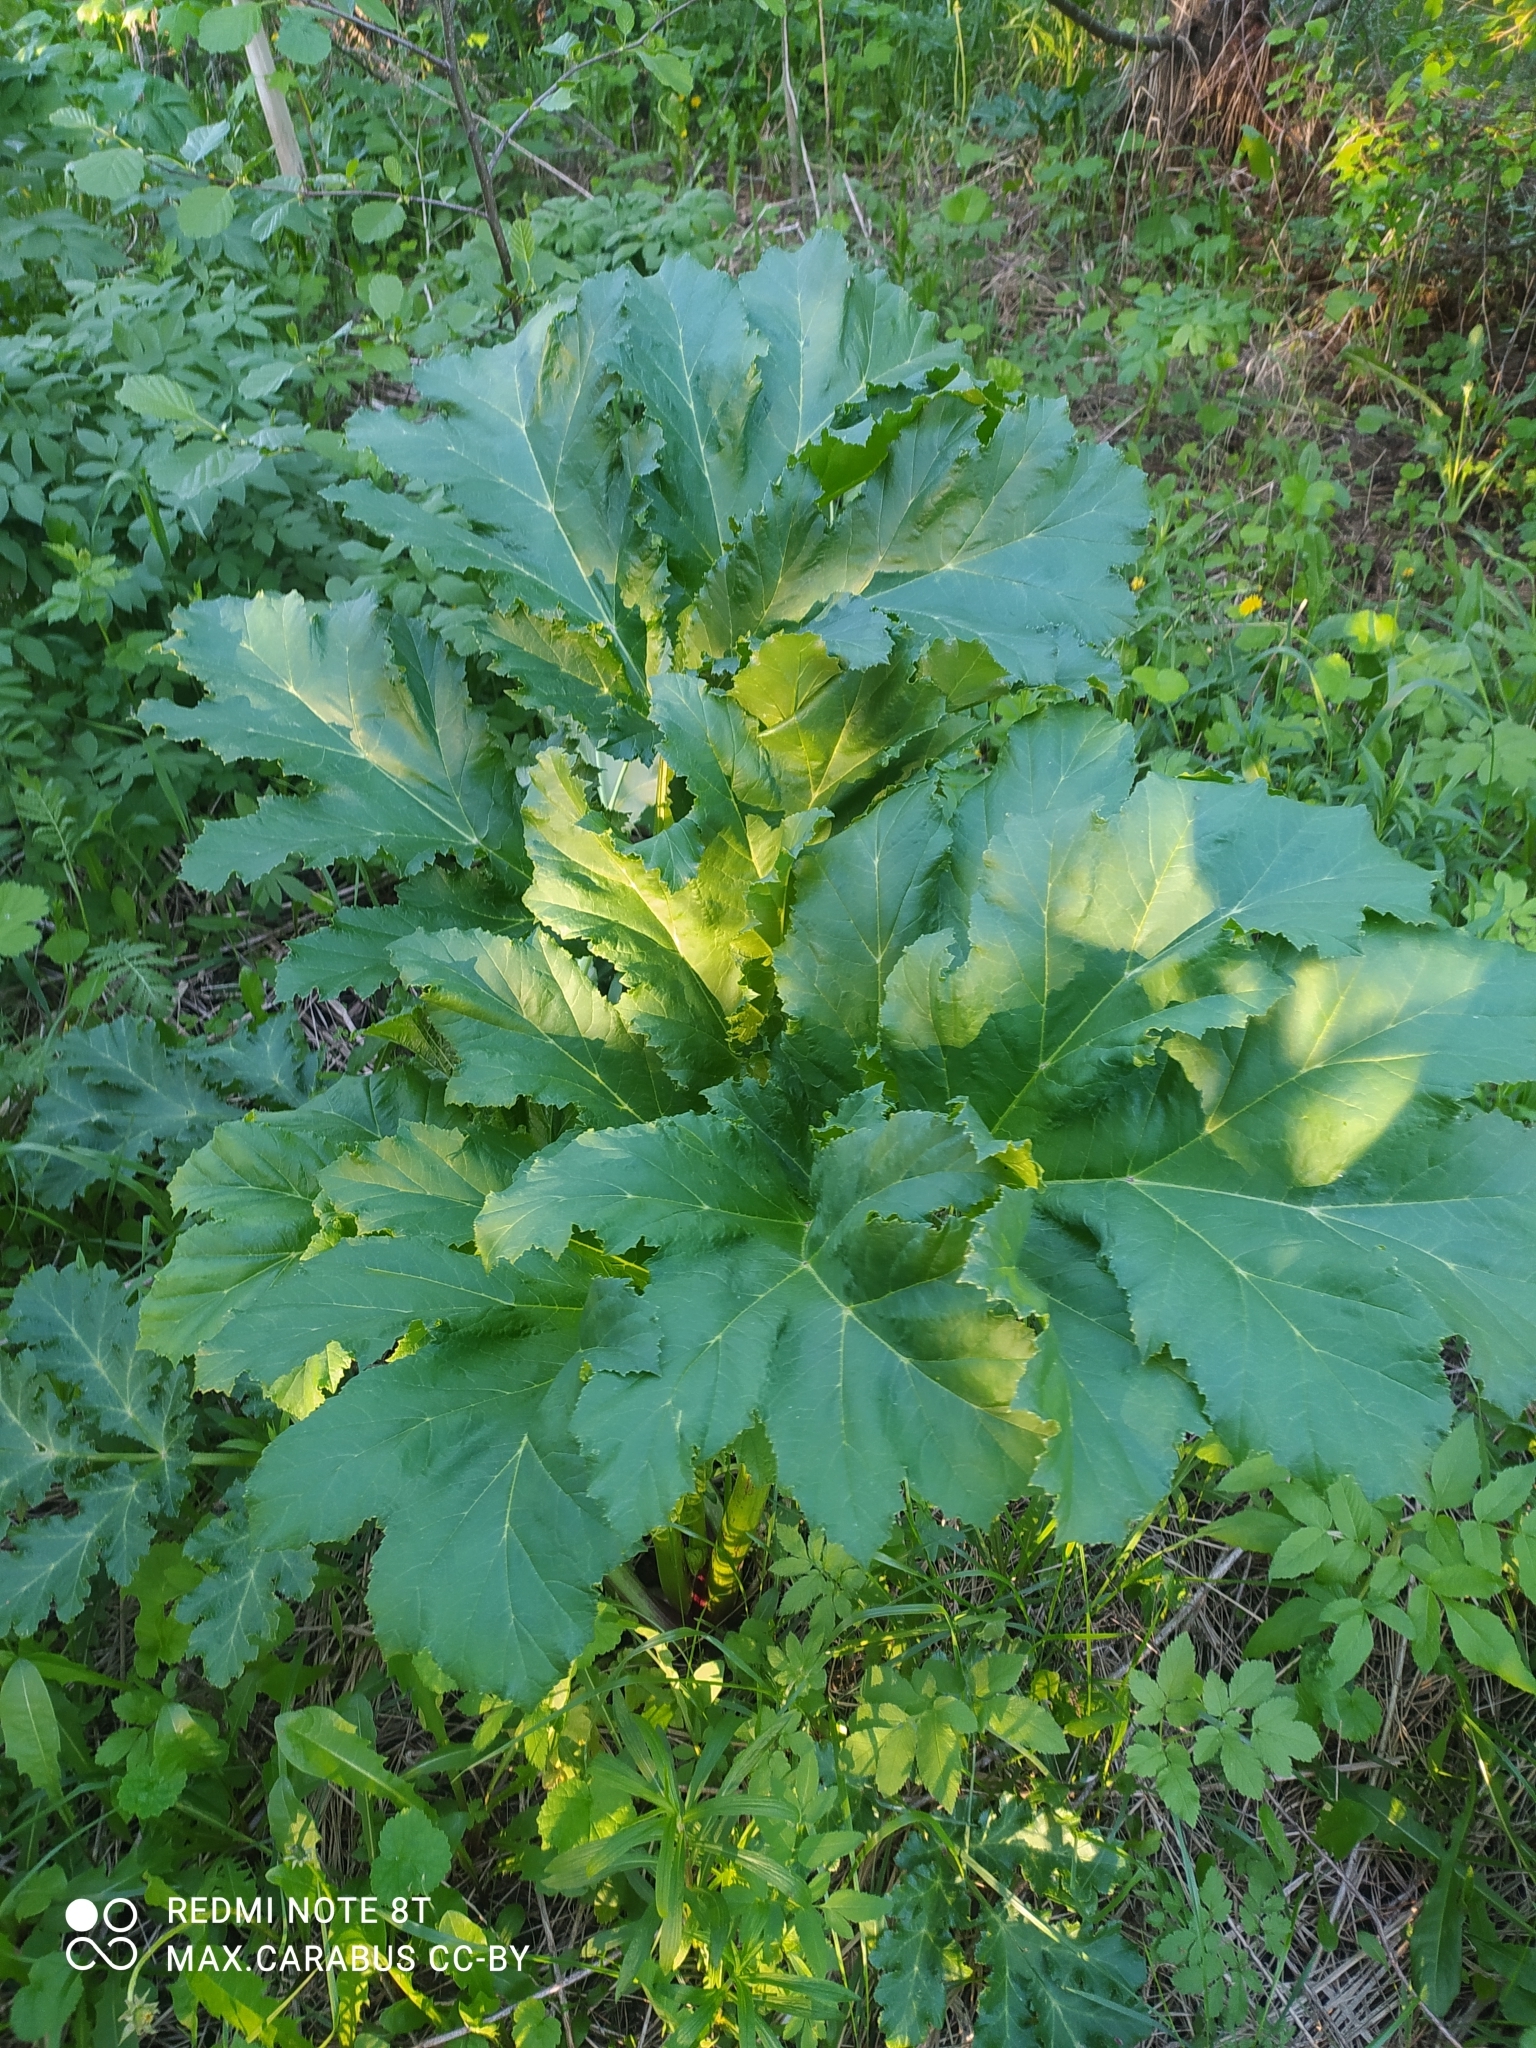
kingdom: Plantae
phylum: Tracheophyta
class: Magnoliopsida
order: Apiales
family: Apiaceae
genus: Heracleum
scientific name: Heracleum sosnowskyi
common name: Sosnowsky's hogweed
